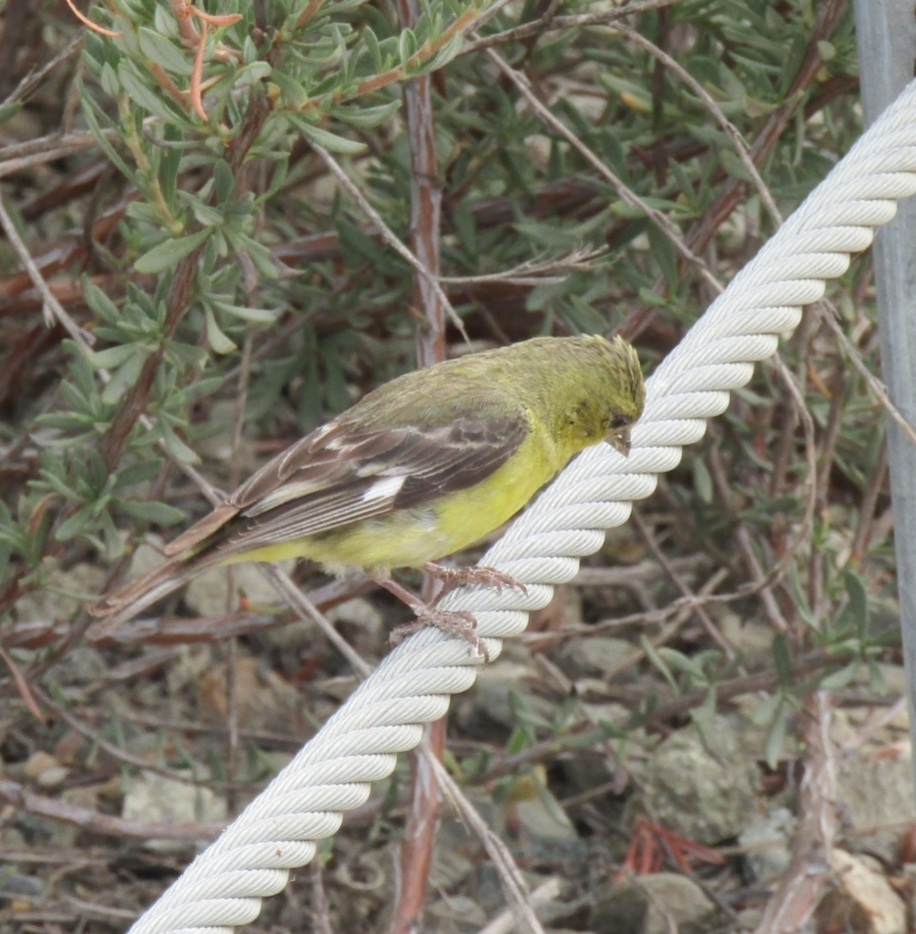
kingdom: Animalia
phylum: Chordata
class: Aves
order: Passeriformes
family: Fringillidae
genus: Spinus
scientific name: Spinus psaltria
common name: Lesser goldfinch
